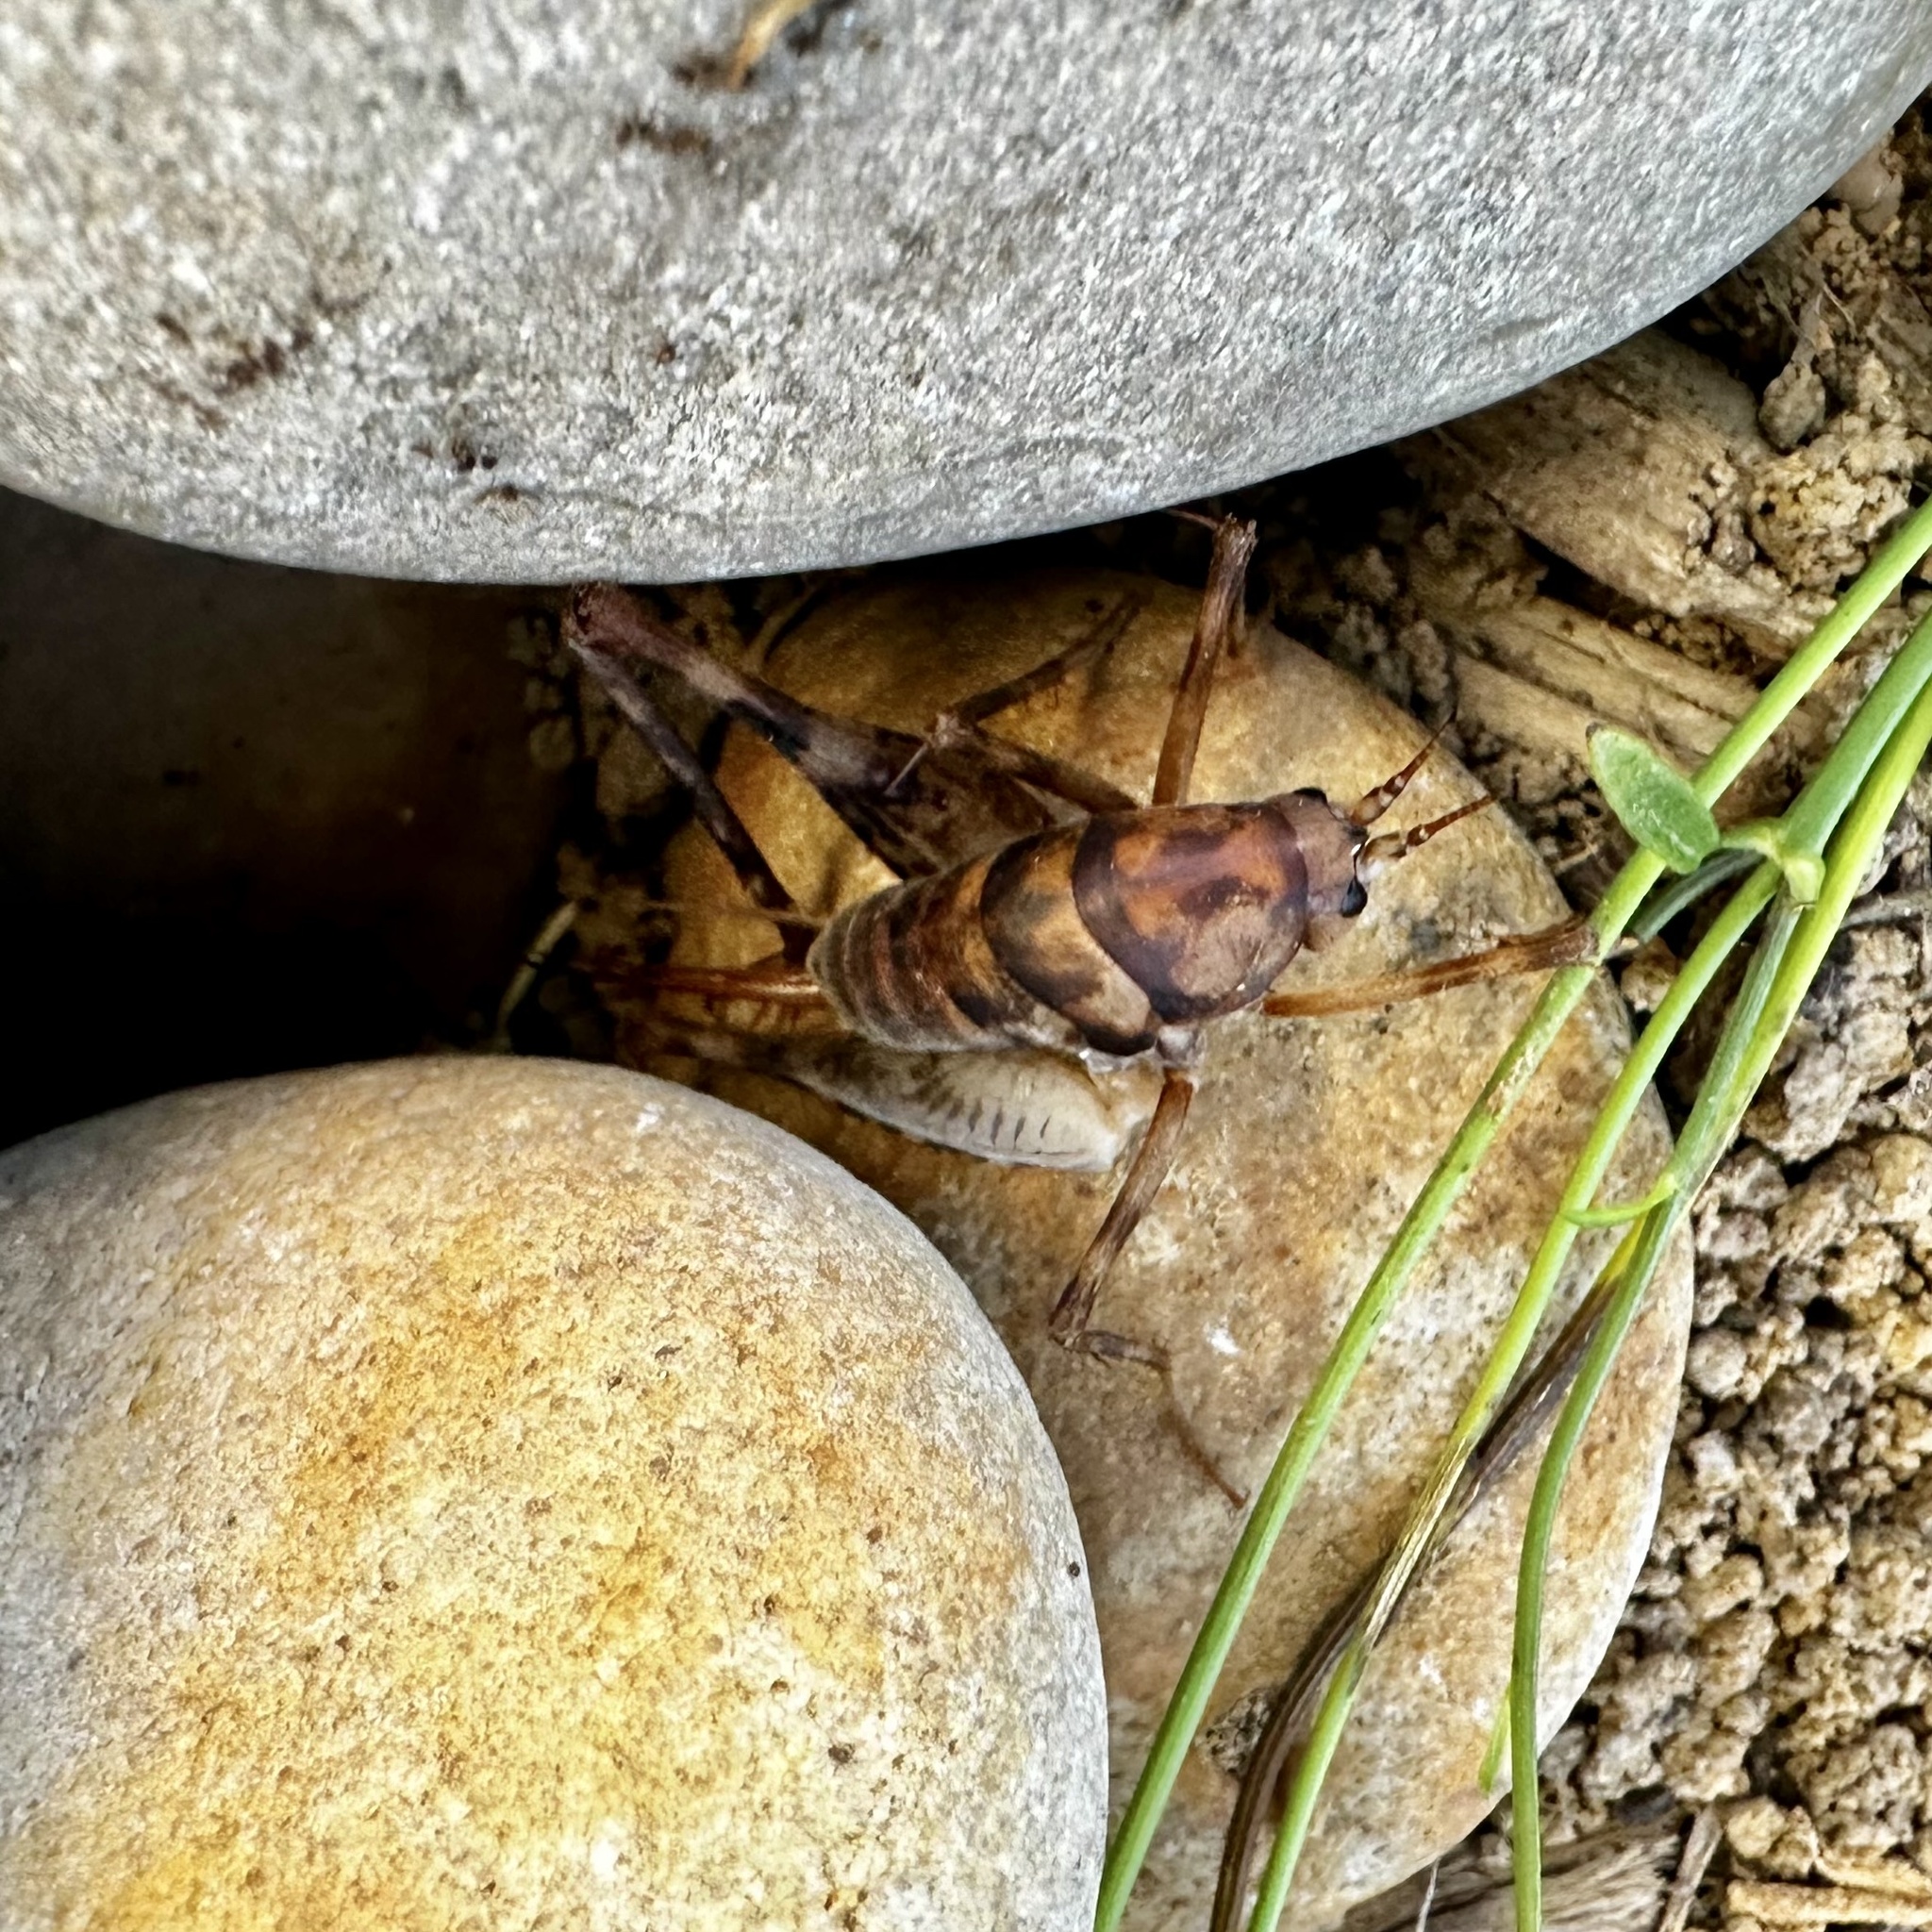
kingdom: Animalia
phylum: Arthropoda
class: Insecta
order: Orthoptera
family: Rhaphidophoridae
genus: Tachycines
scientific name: Tachycines asynamorus
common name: Greenhouse camel cricket
